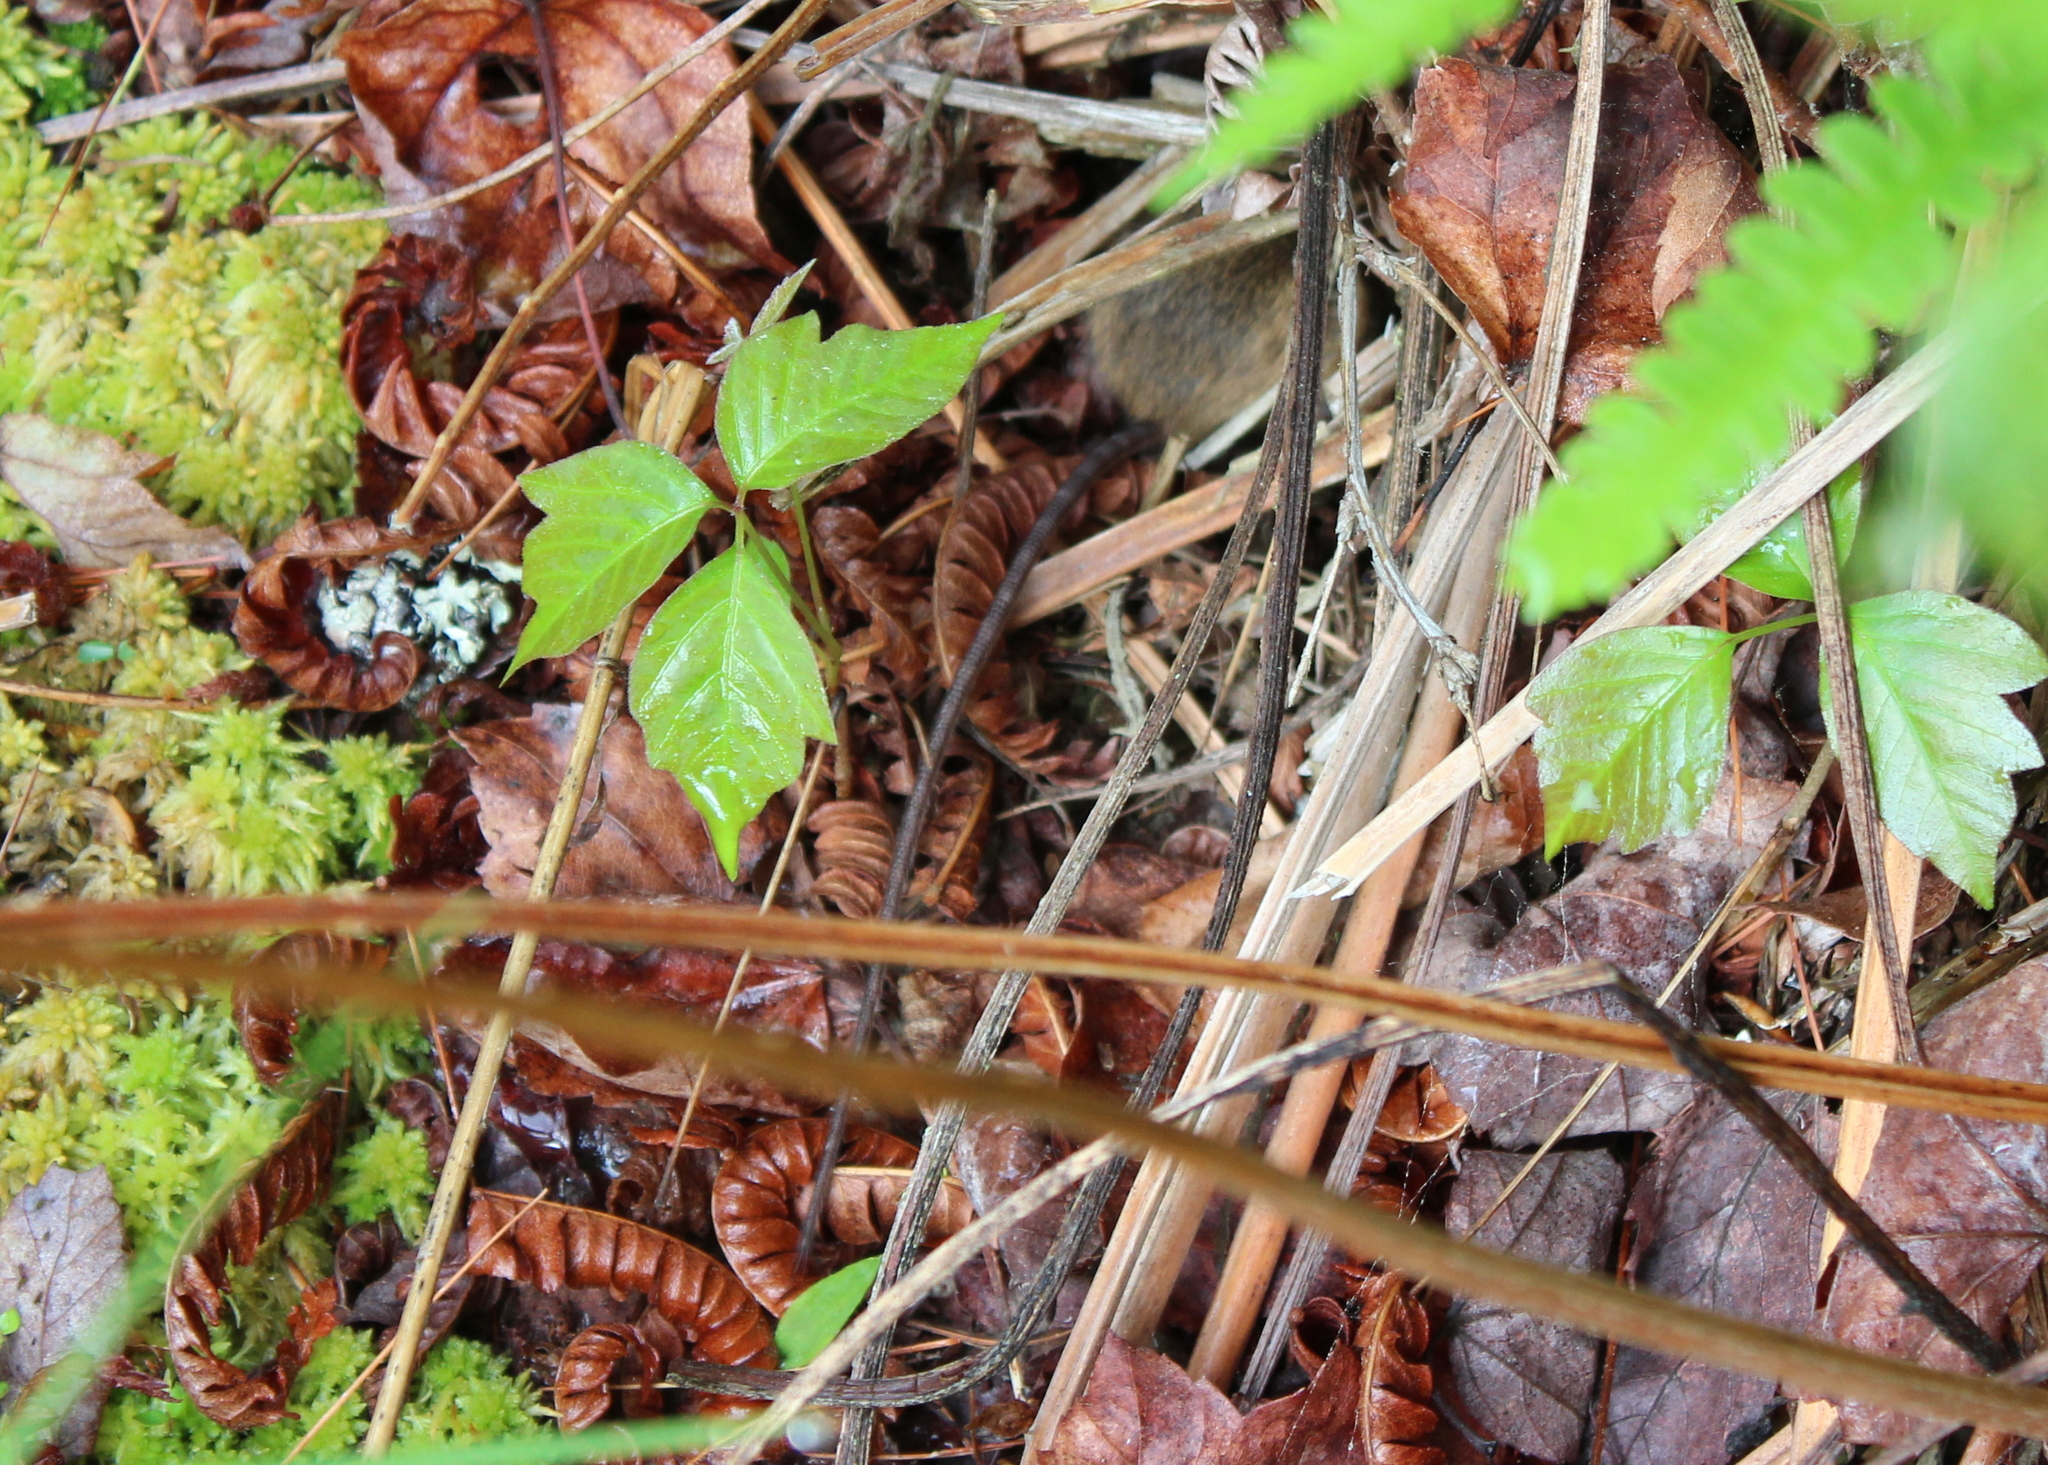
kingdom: Animalia
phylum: Chordata
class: Mammalia
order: Rodentia
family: Dipodidae
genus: Zapus
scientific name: Zapus hudsonius
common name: Meadow jumping mouse
